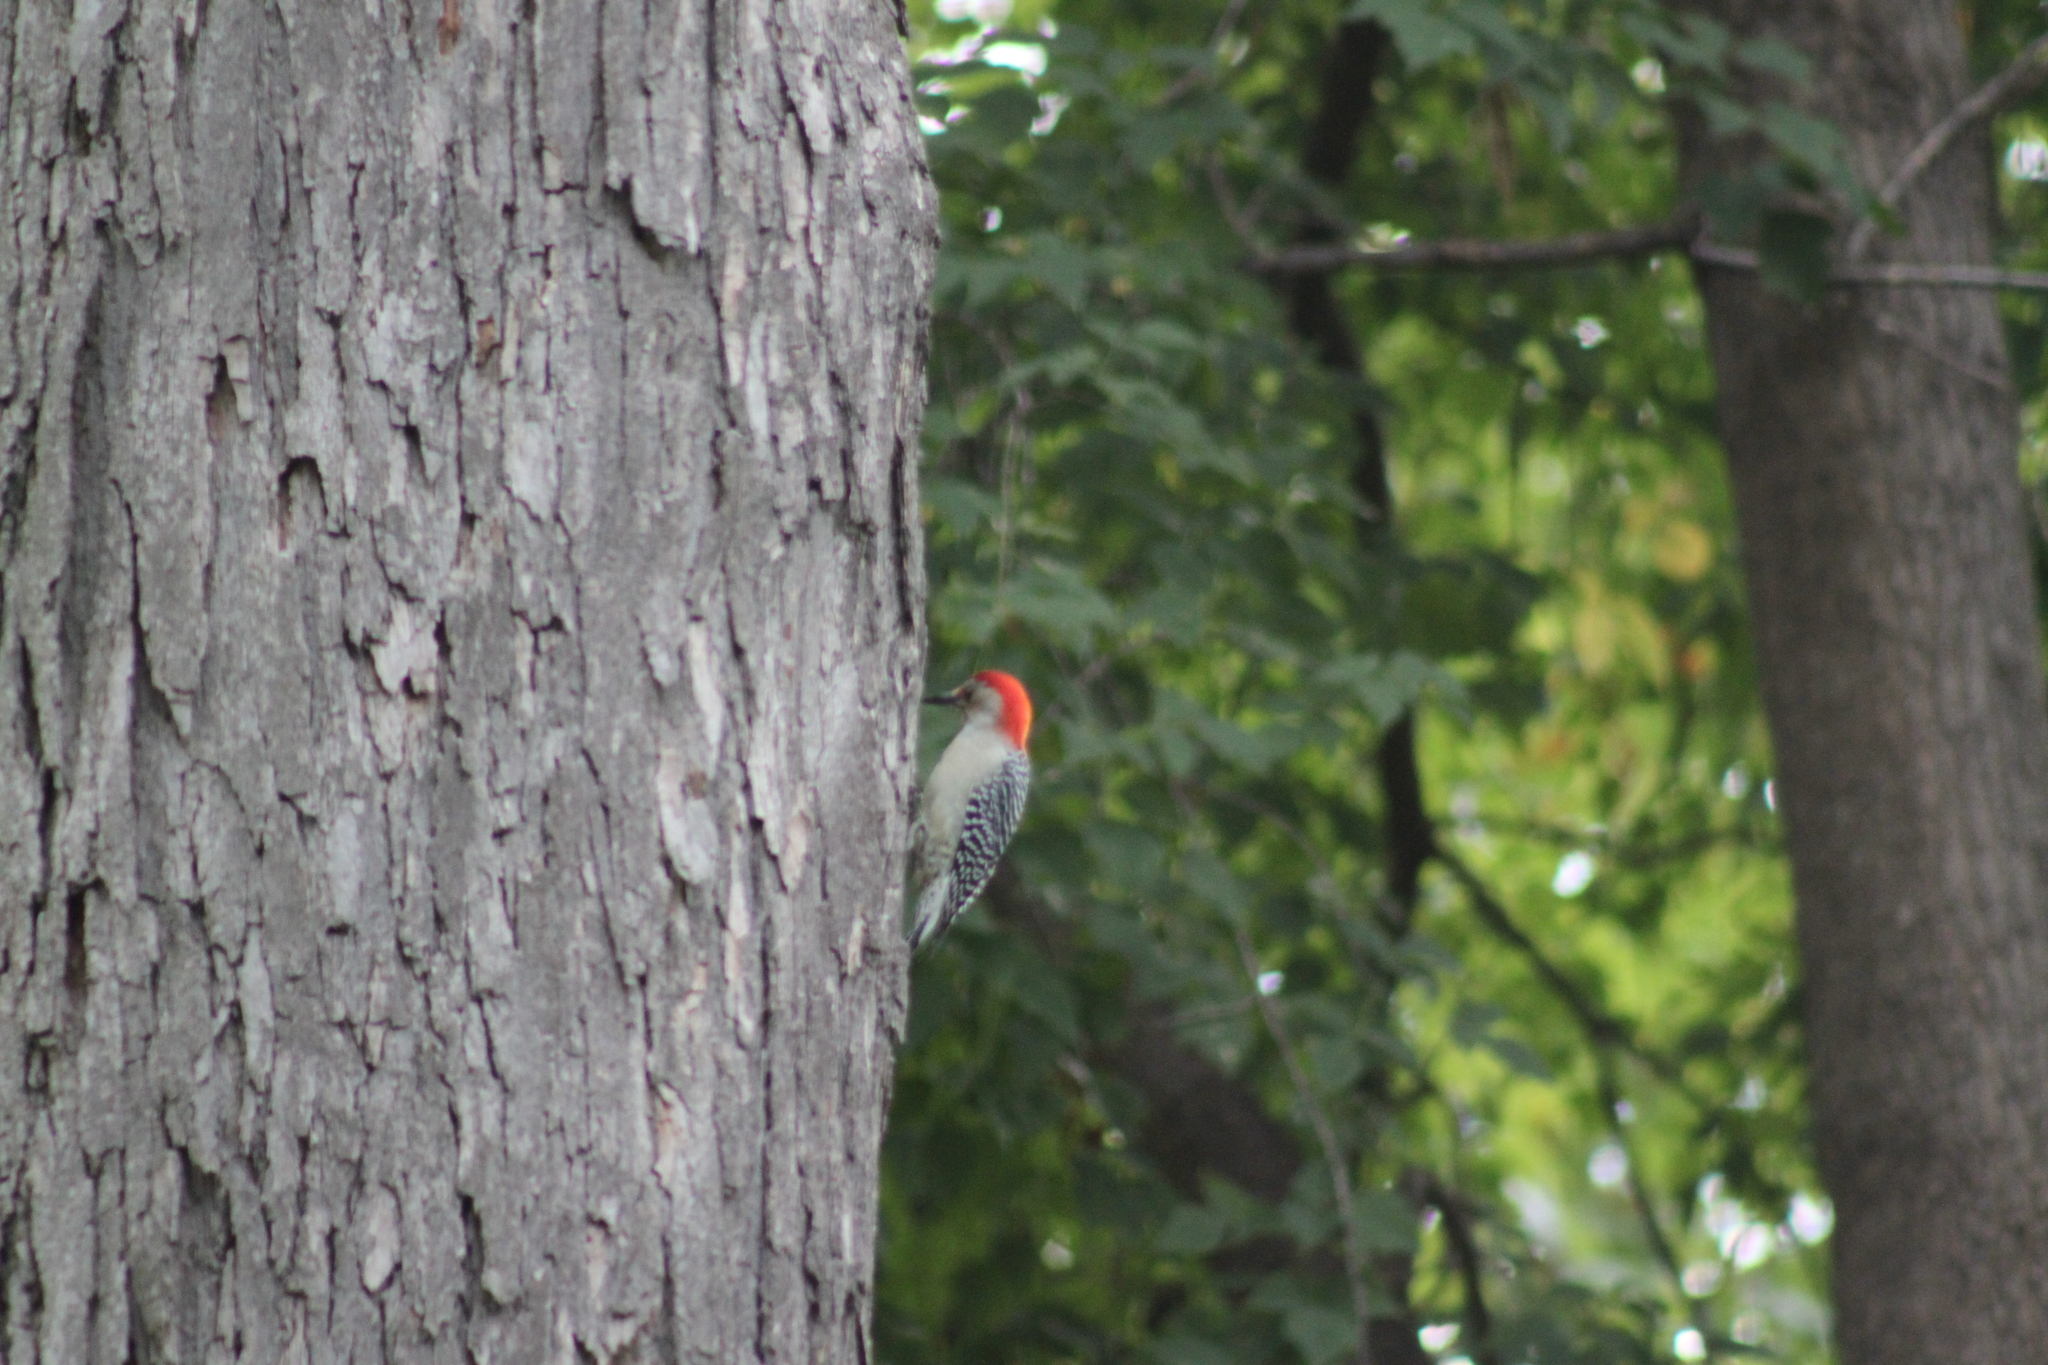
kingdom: Animalia
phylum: Chordata
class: Aves
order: Piciformes
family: Picidae
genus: Melanerpes
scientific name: Melanerpes carolinus
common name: Red-bellied woodpecker
